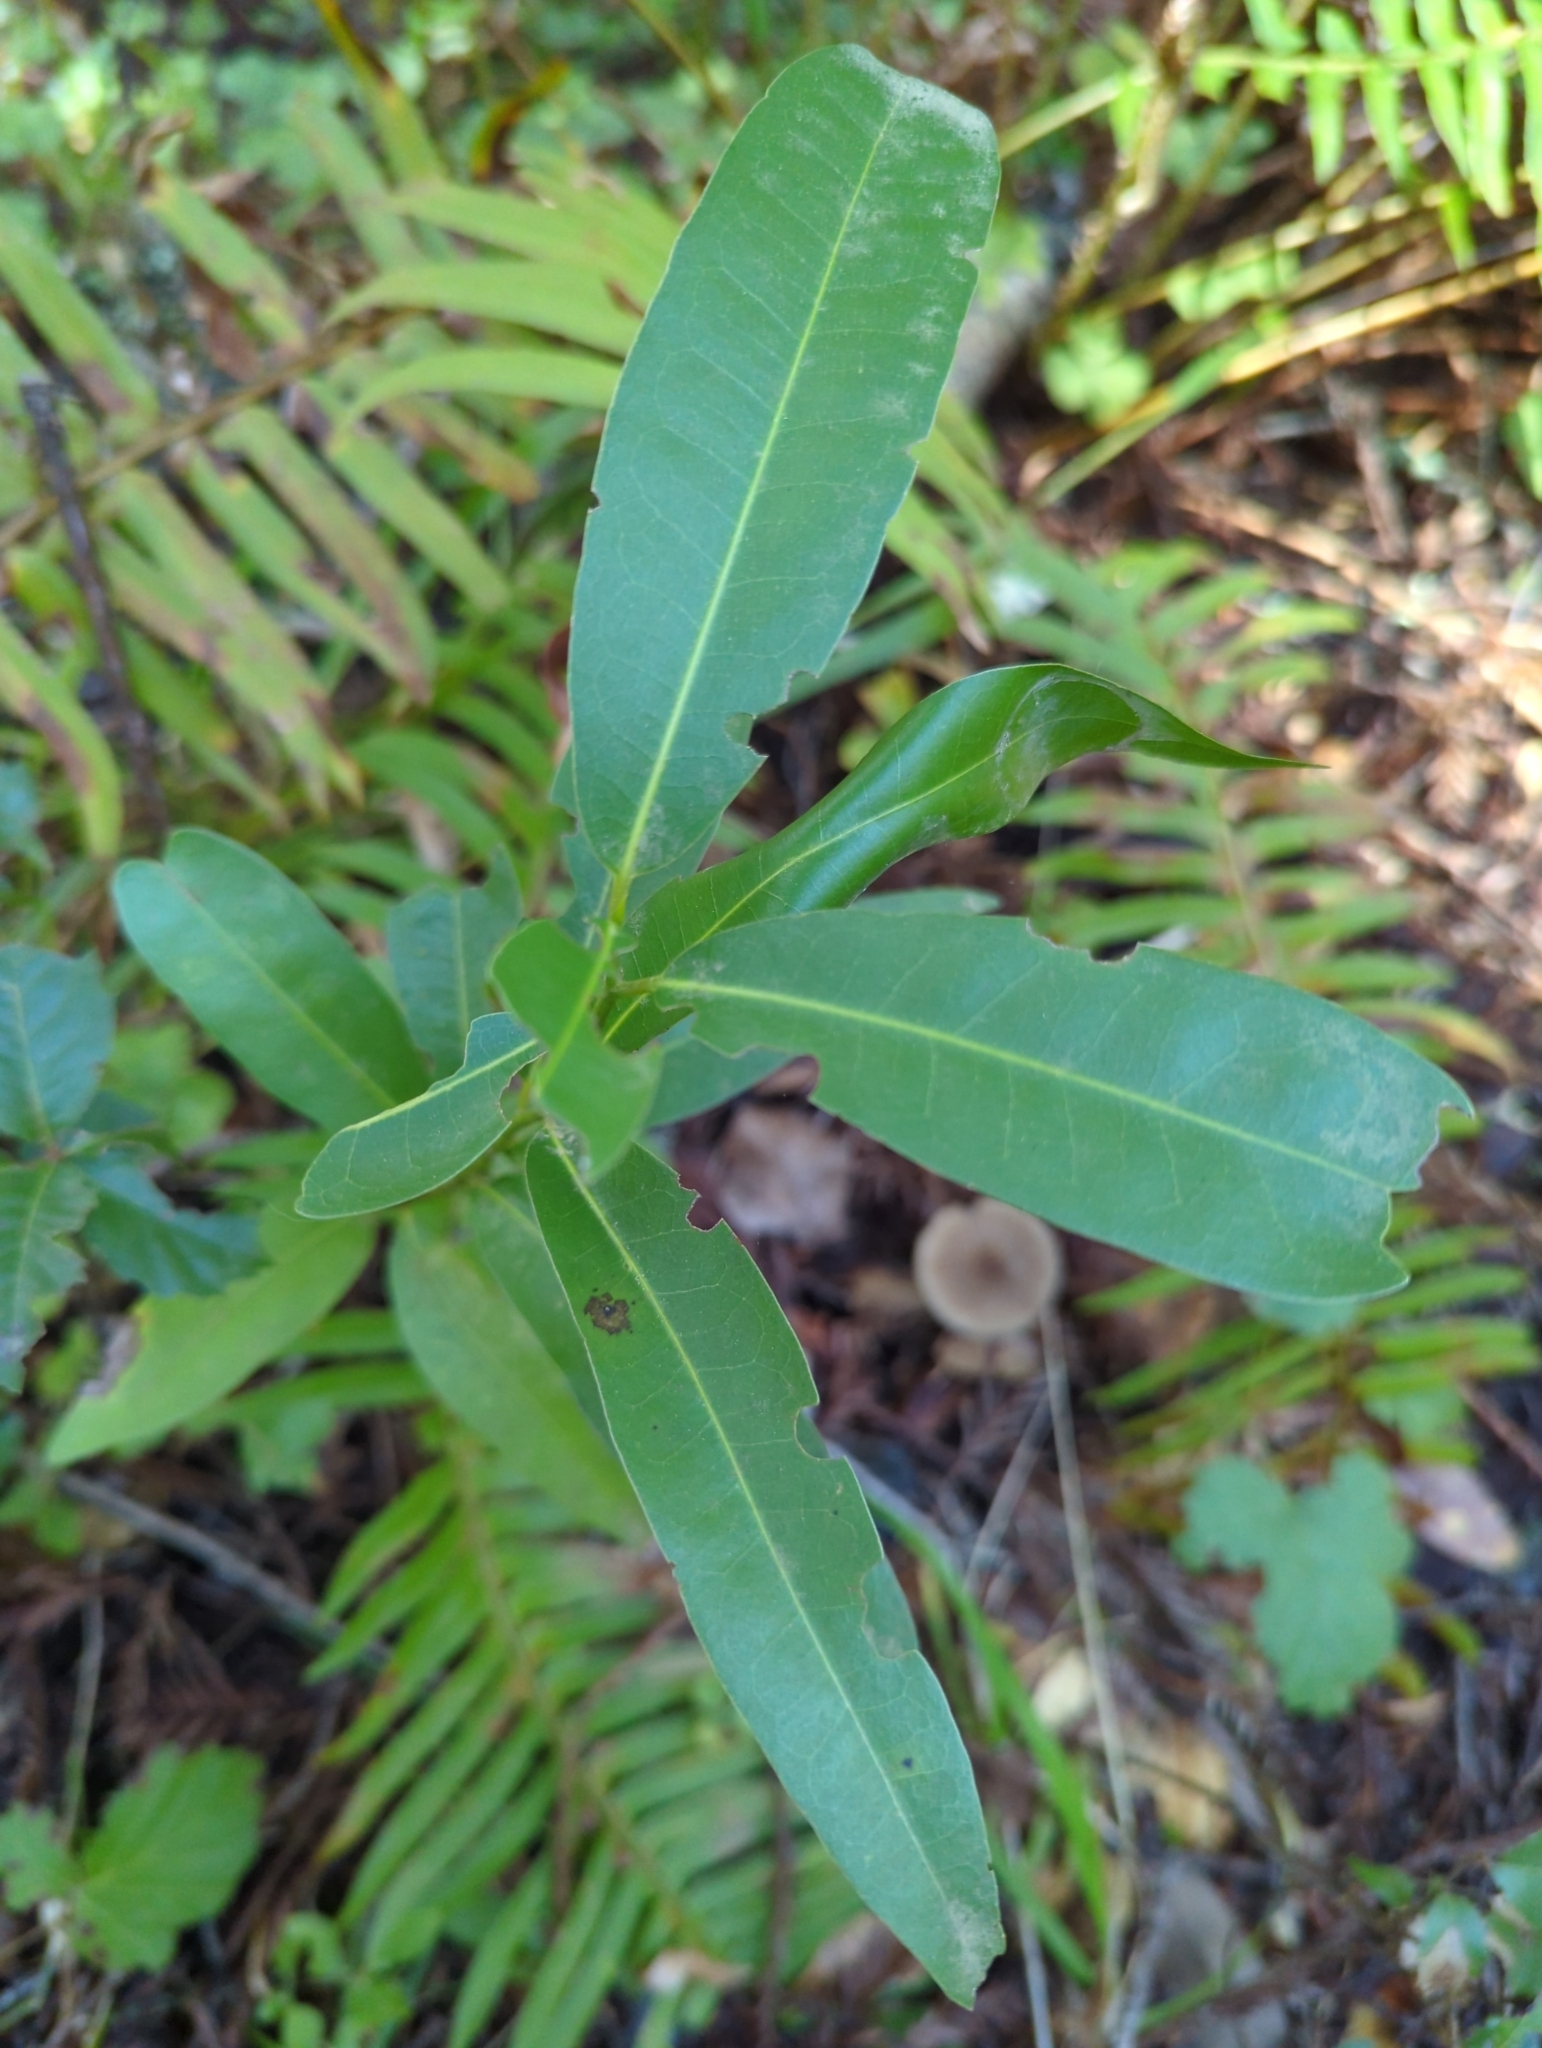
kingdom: Plantae
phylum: Tracheophyta
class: Magnoliopsida
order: Laurales
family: Lauraceae
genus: Umbellularia
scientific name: Umbellularia californica
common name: California bay
